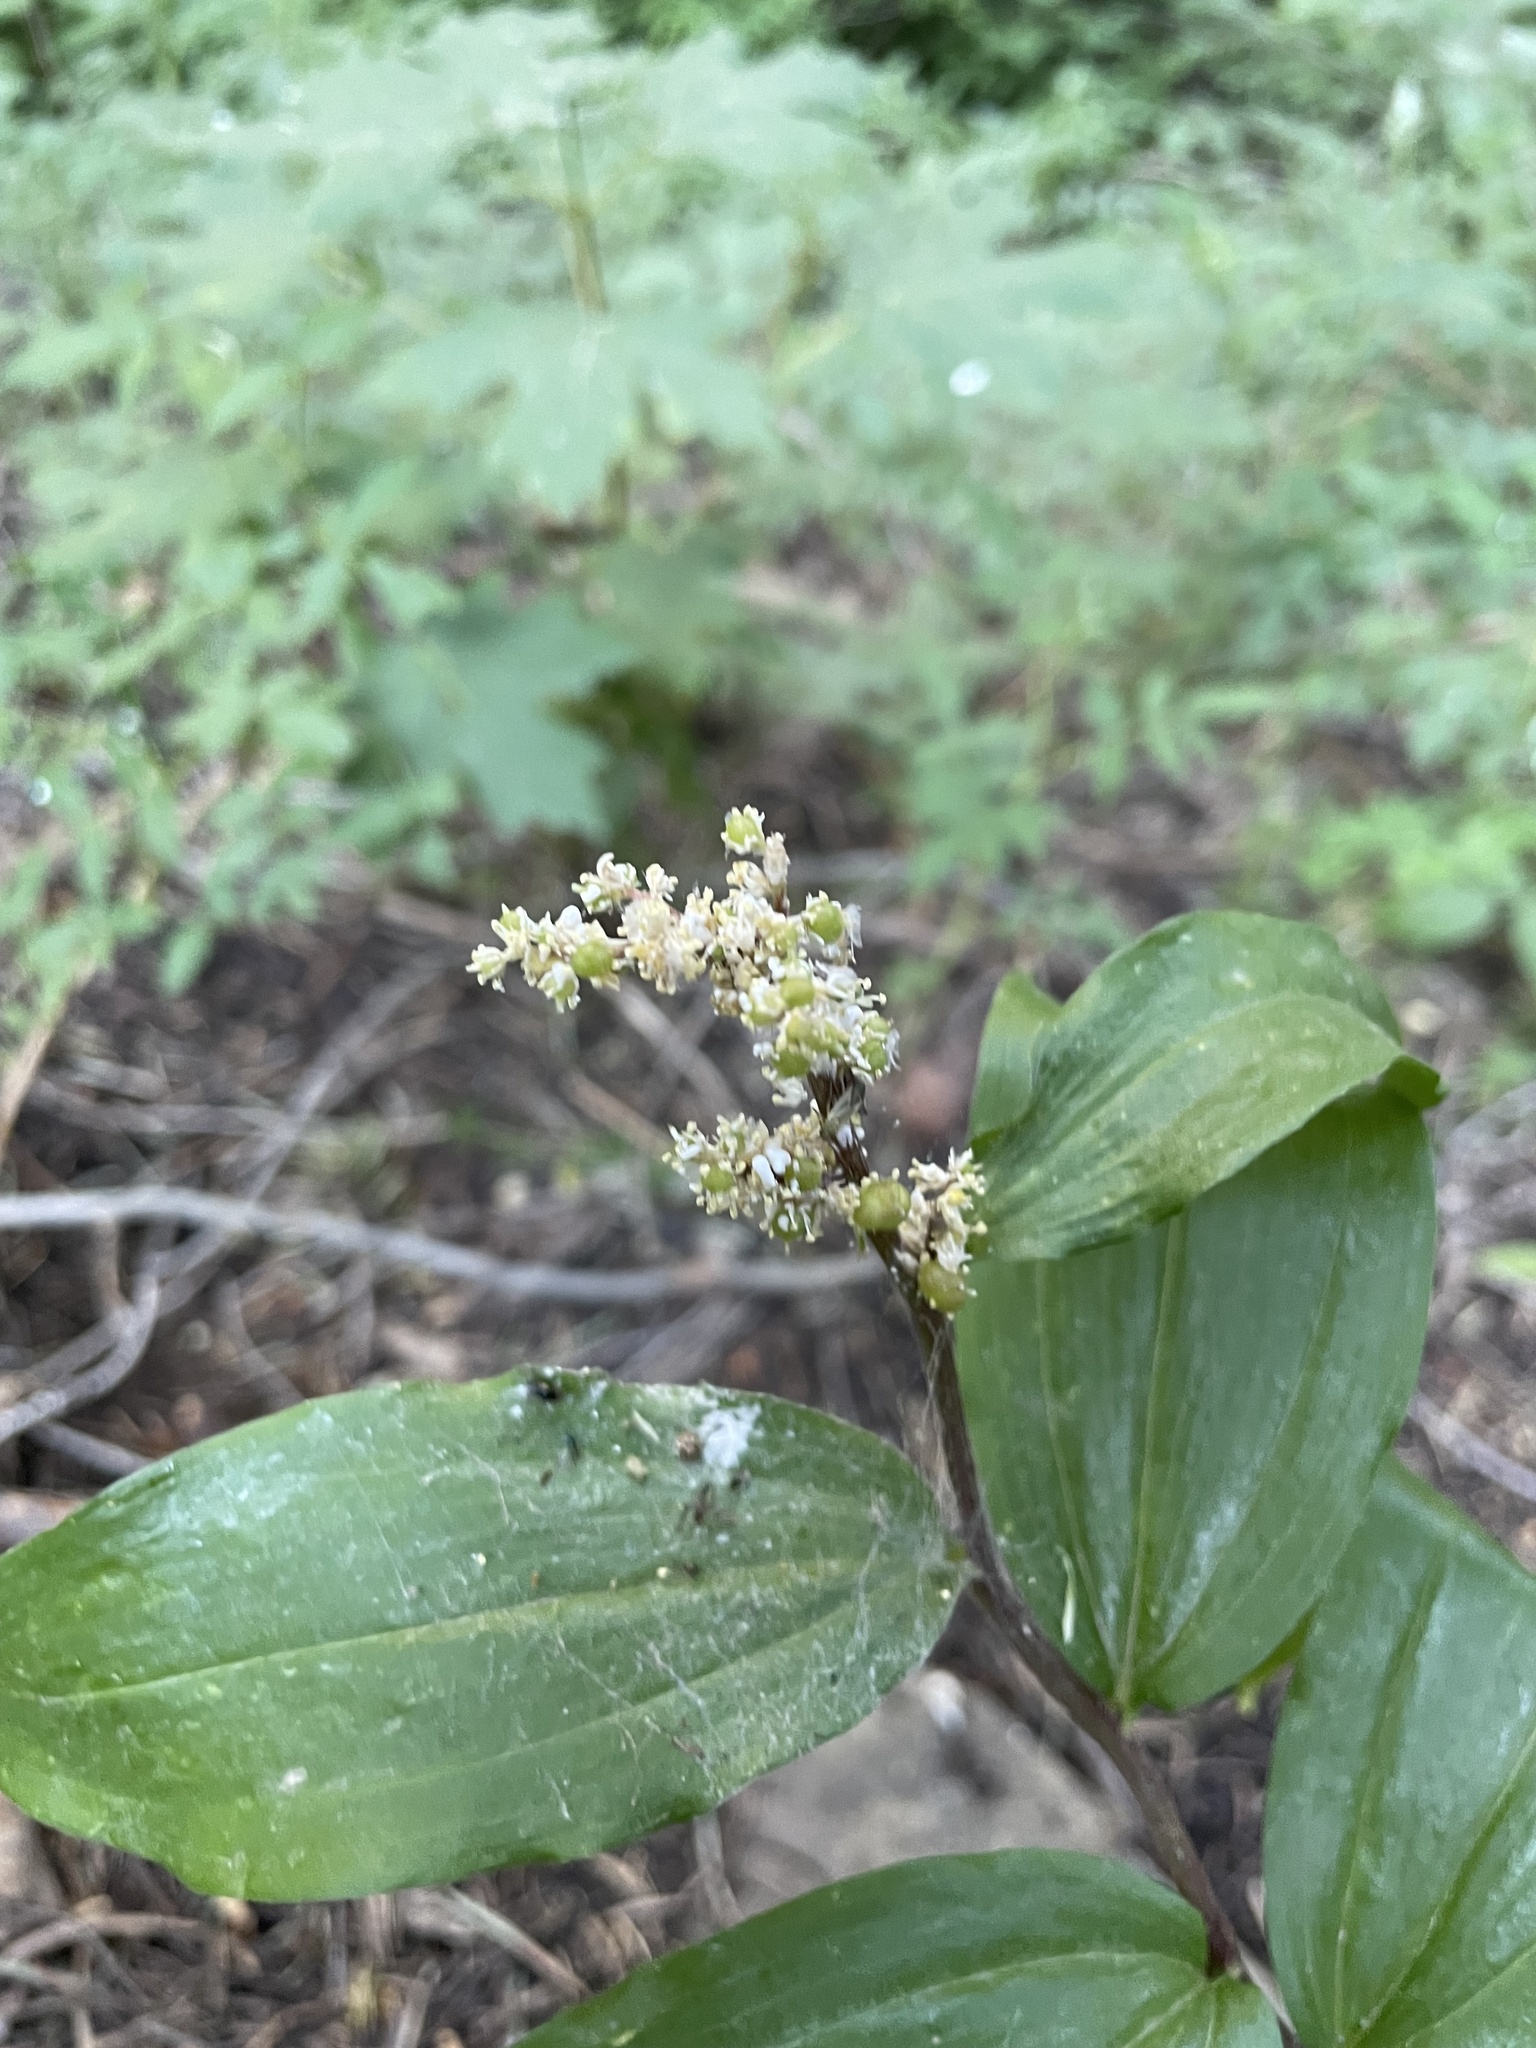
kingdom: Plantae
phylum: Tracheophyta
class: Liliopsida
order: Asparagales
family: Asparagaceae
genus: Maianthemum
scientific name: Maianthemum racemosum
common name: False spikenard
